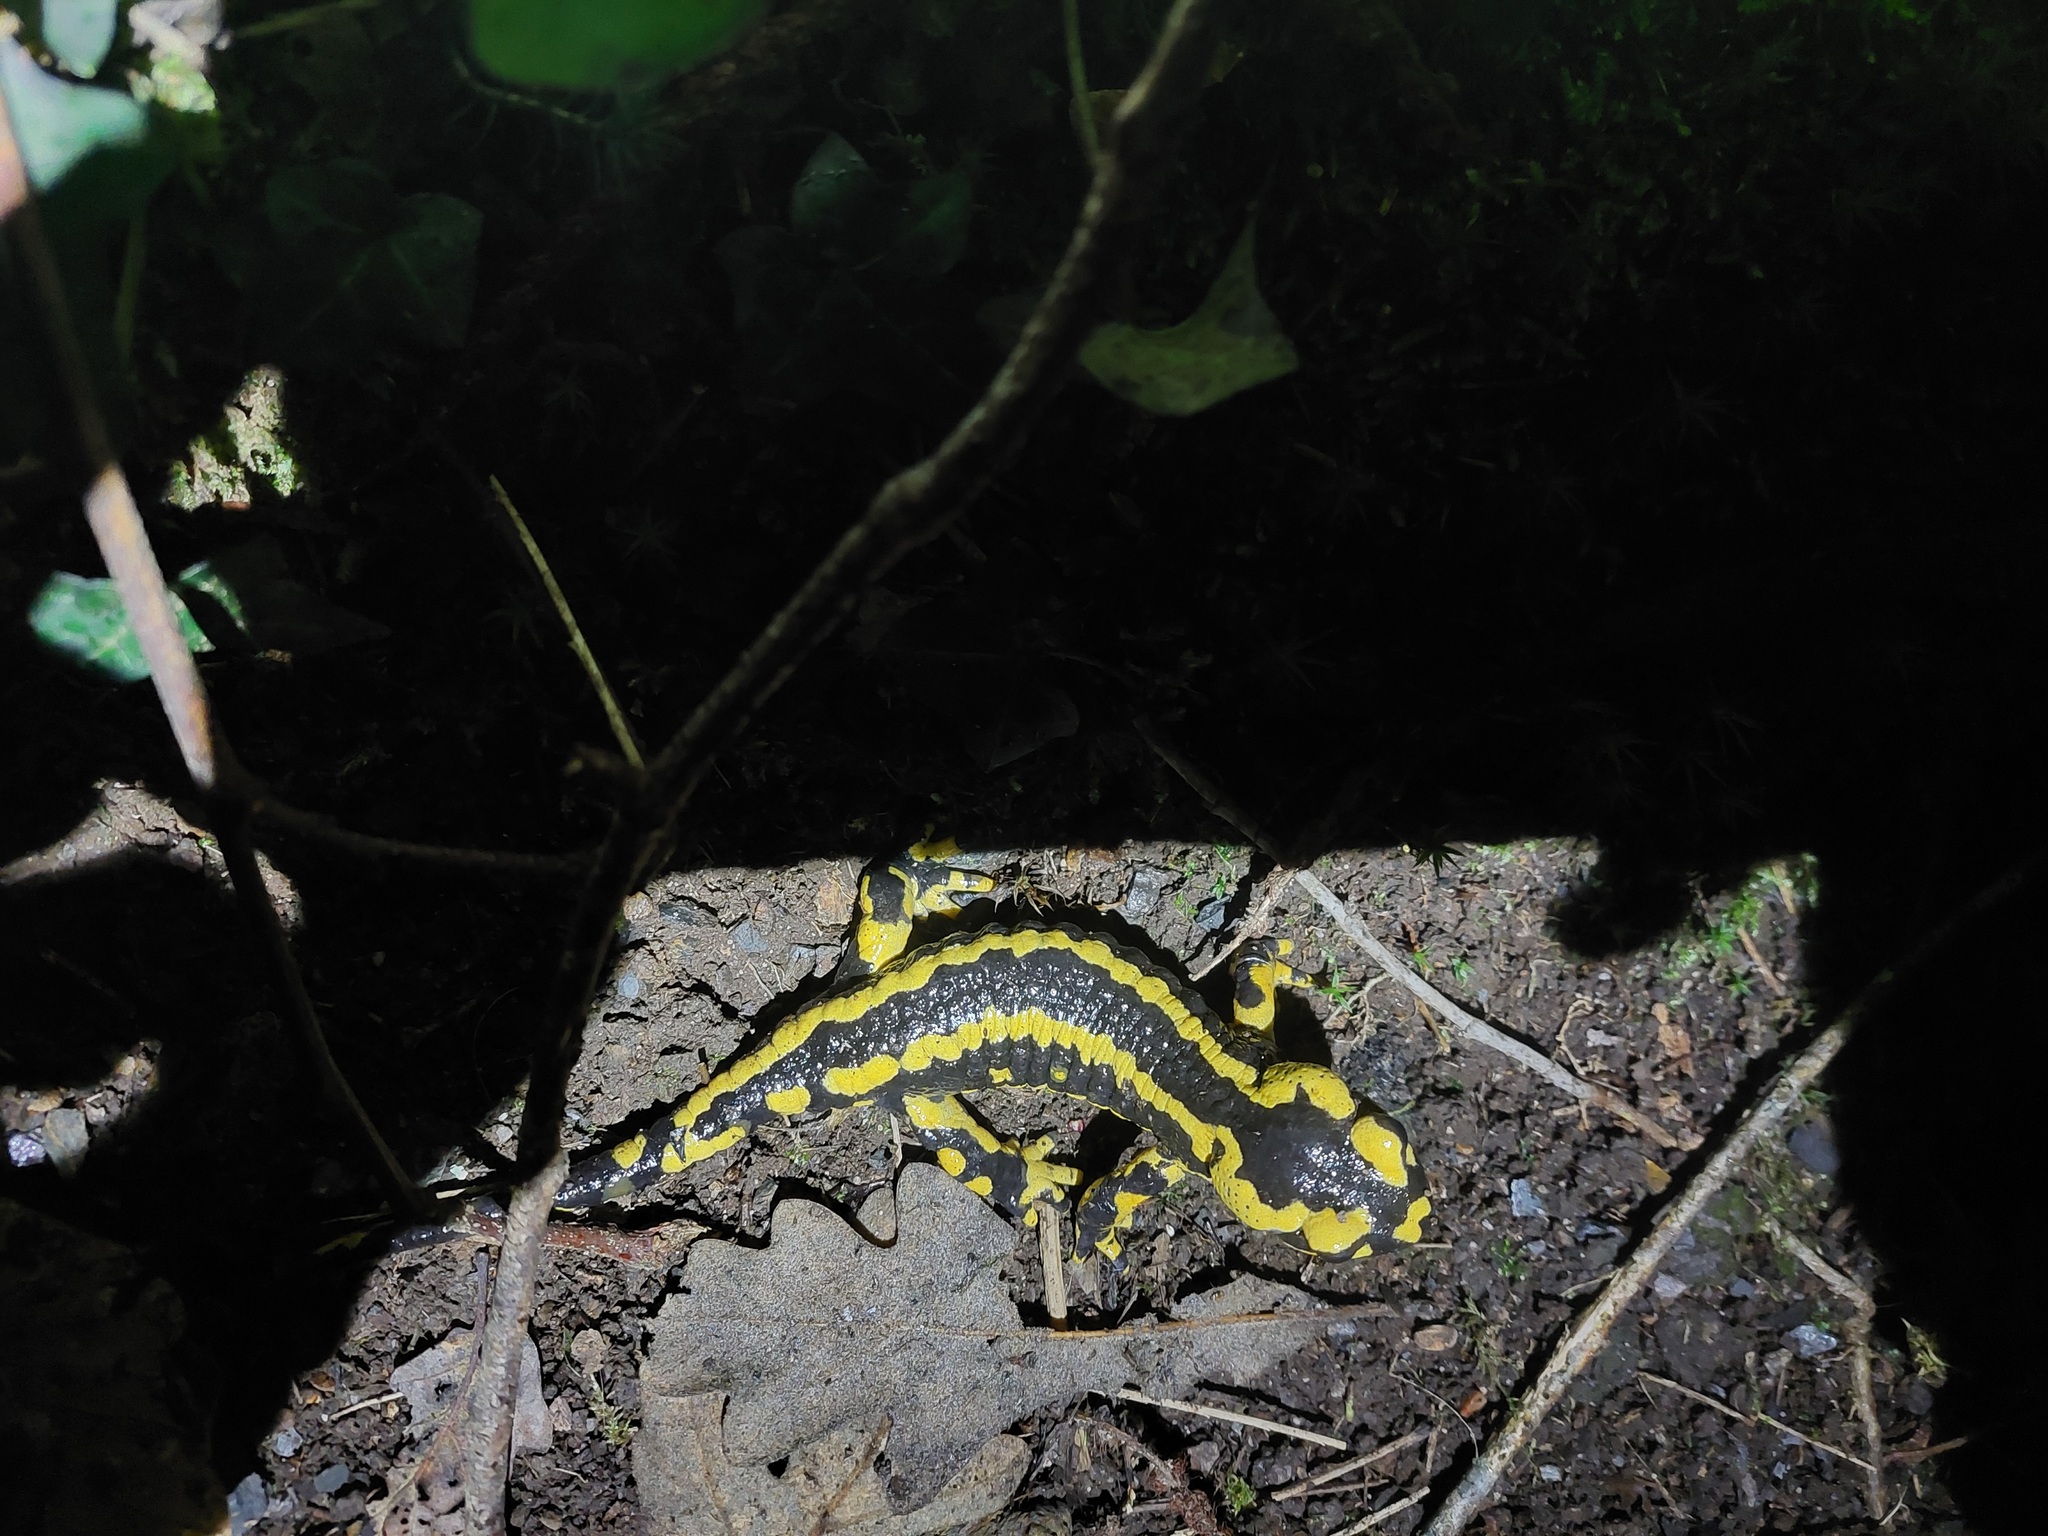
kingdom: Animalia
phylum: Chordata
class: Amphibia
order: Caudata
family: Salamandridae
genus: Salamandra
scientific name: Salamandra salamandra
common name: Fire salamander
